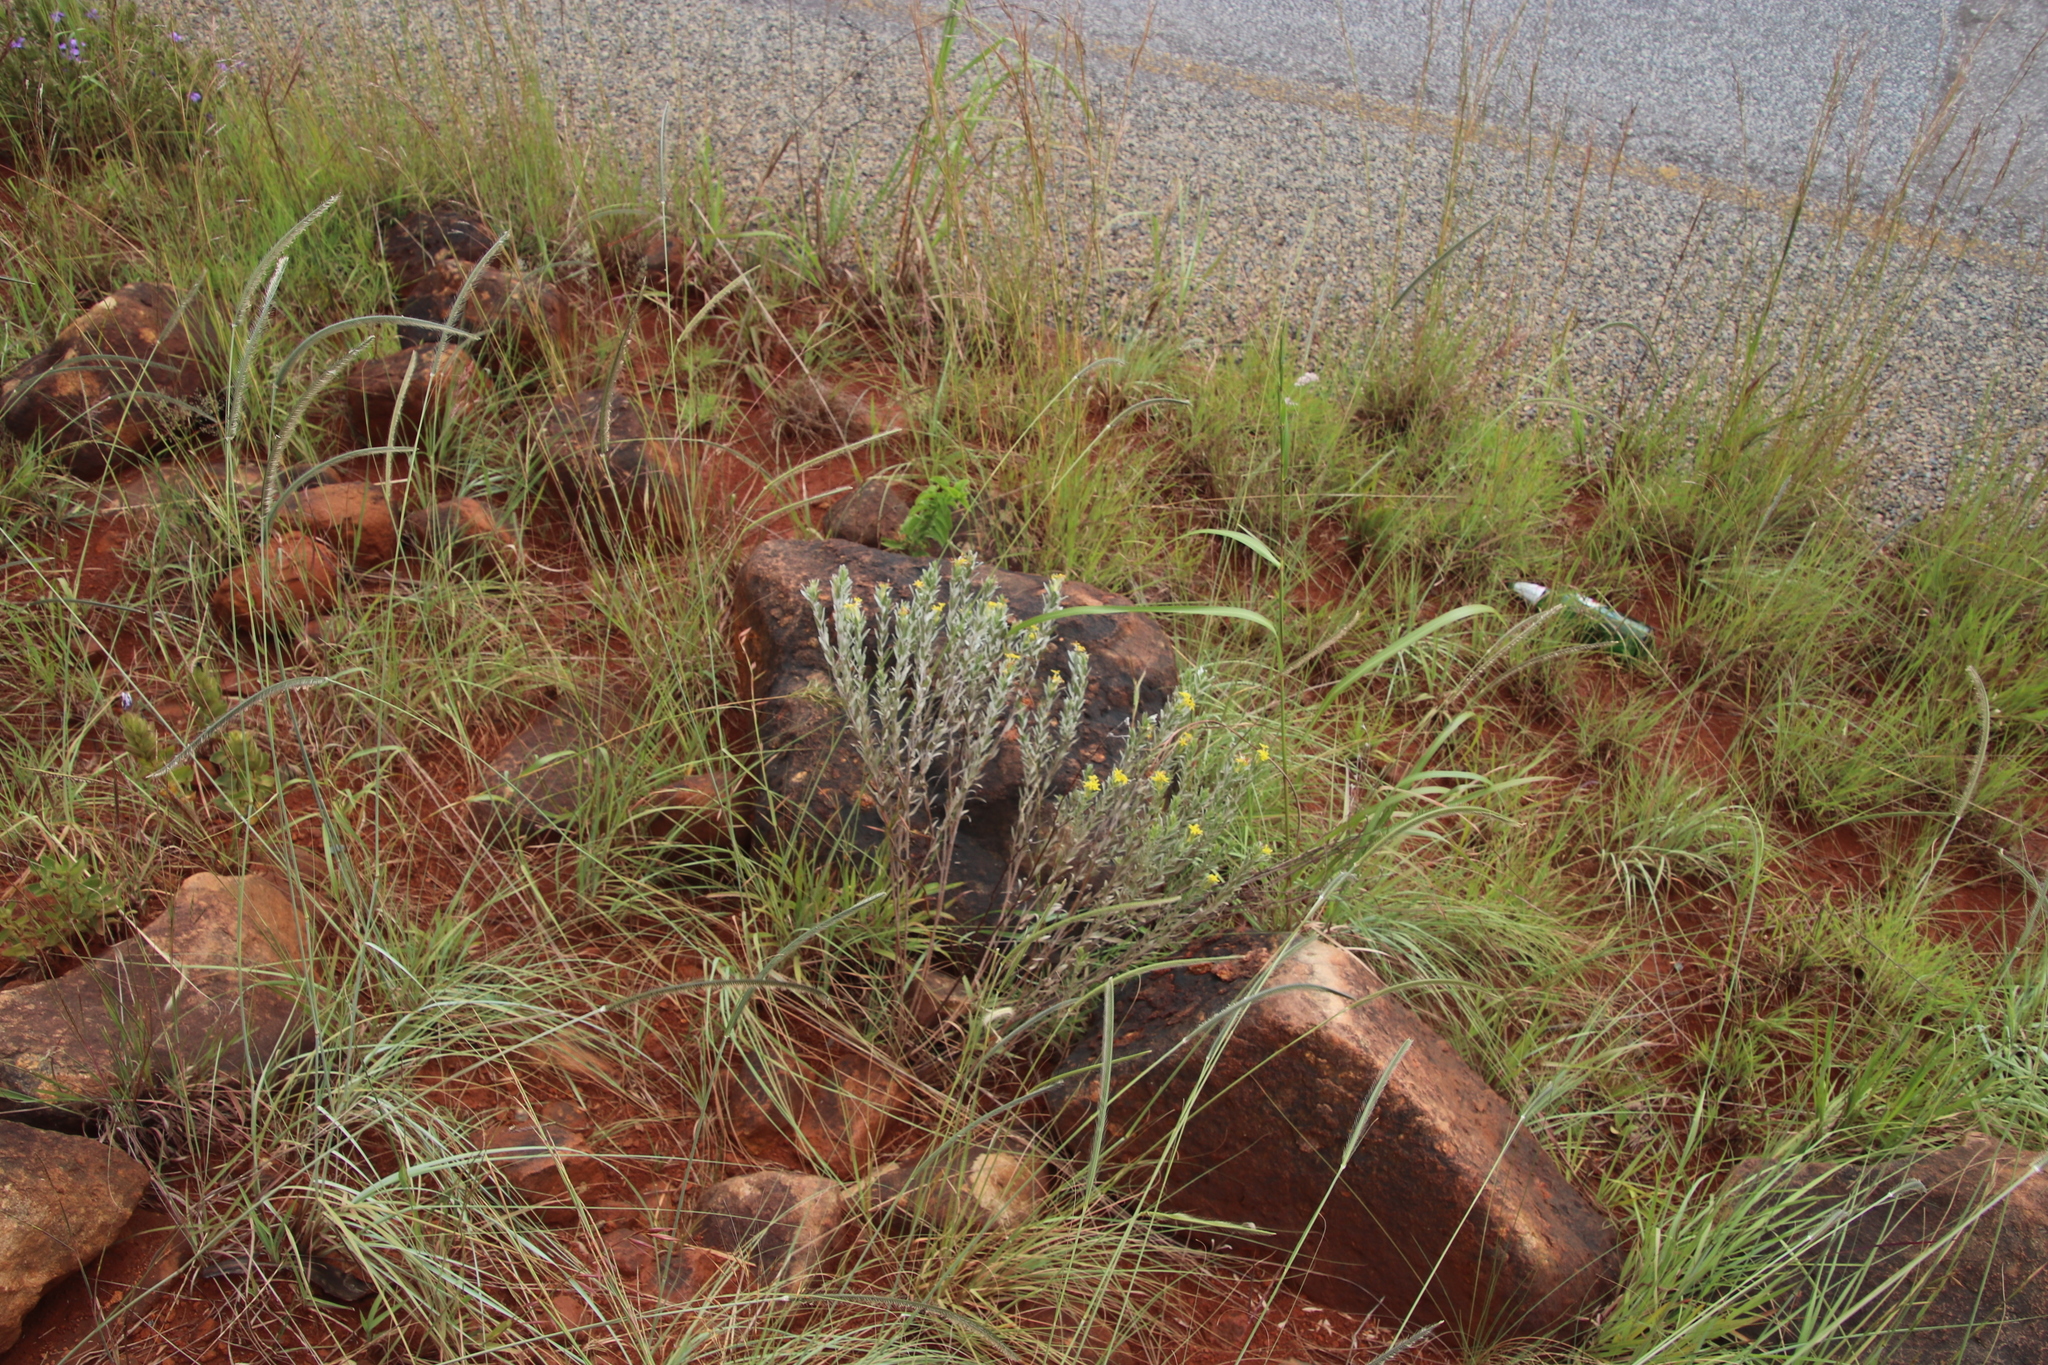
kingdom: Plantae
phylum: Tracheophyta
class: Magnoliopsida
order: Malvales
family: Thymelaeaceae
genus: Gnidia
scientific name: Gnidia splendens
